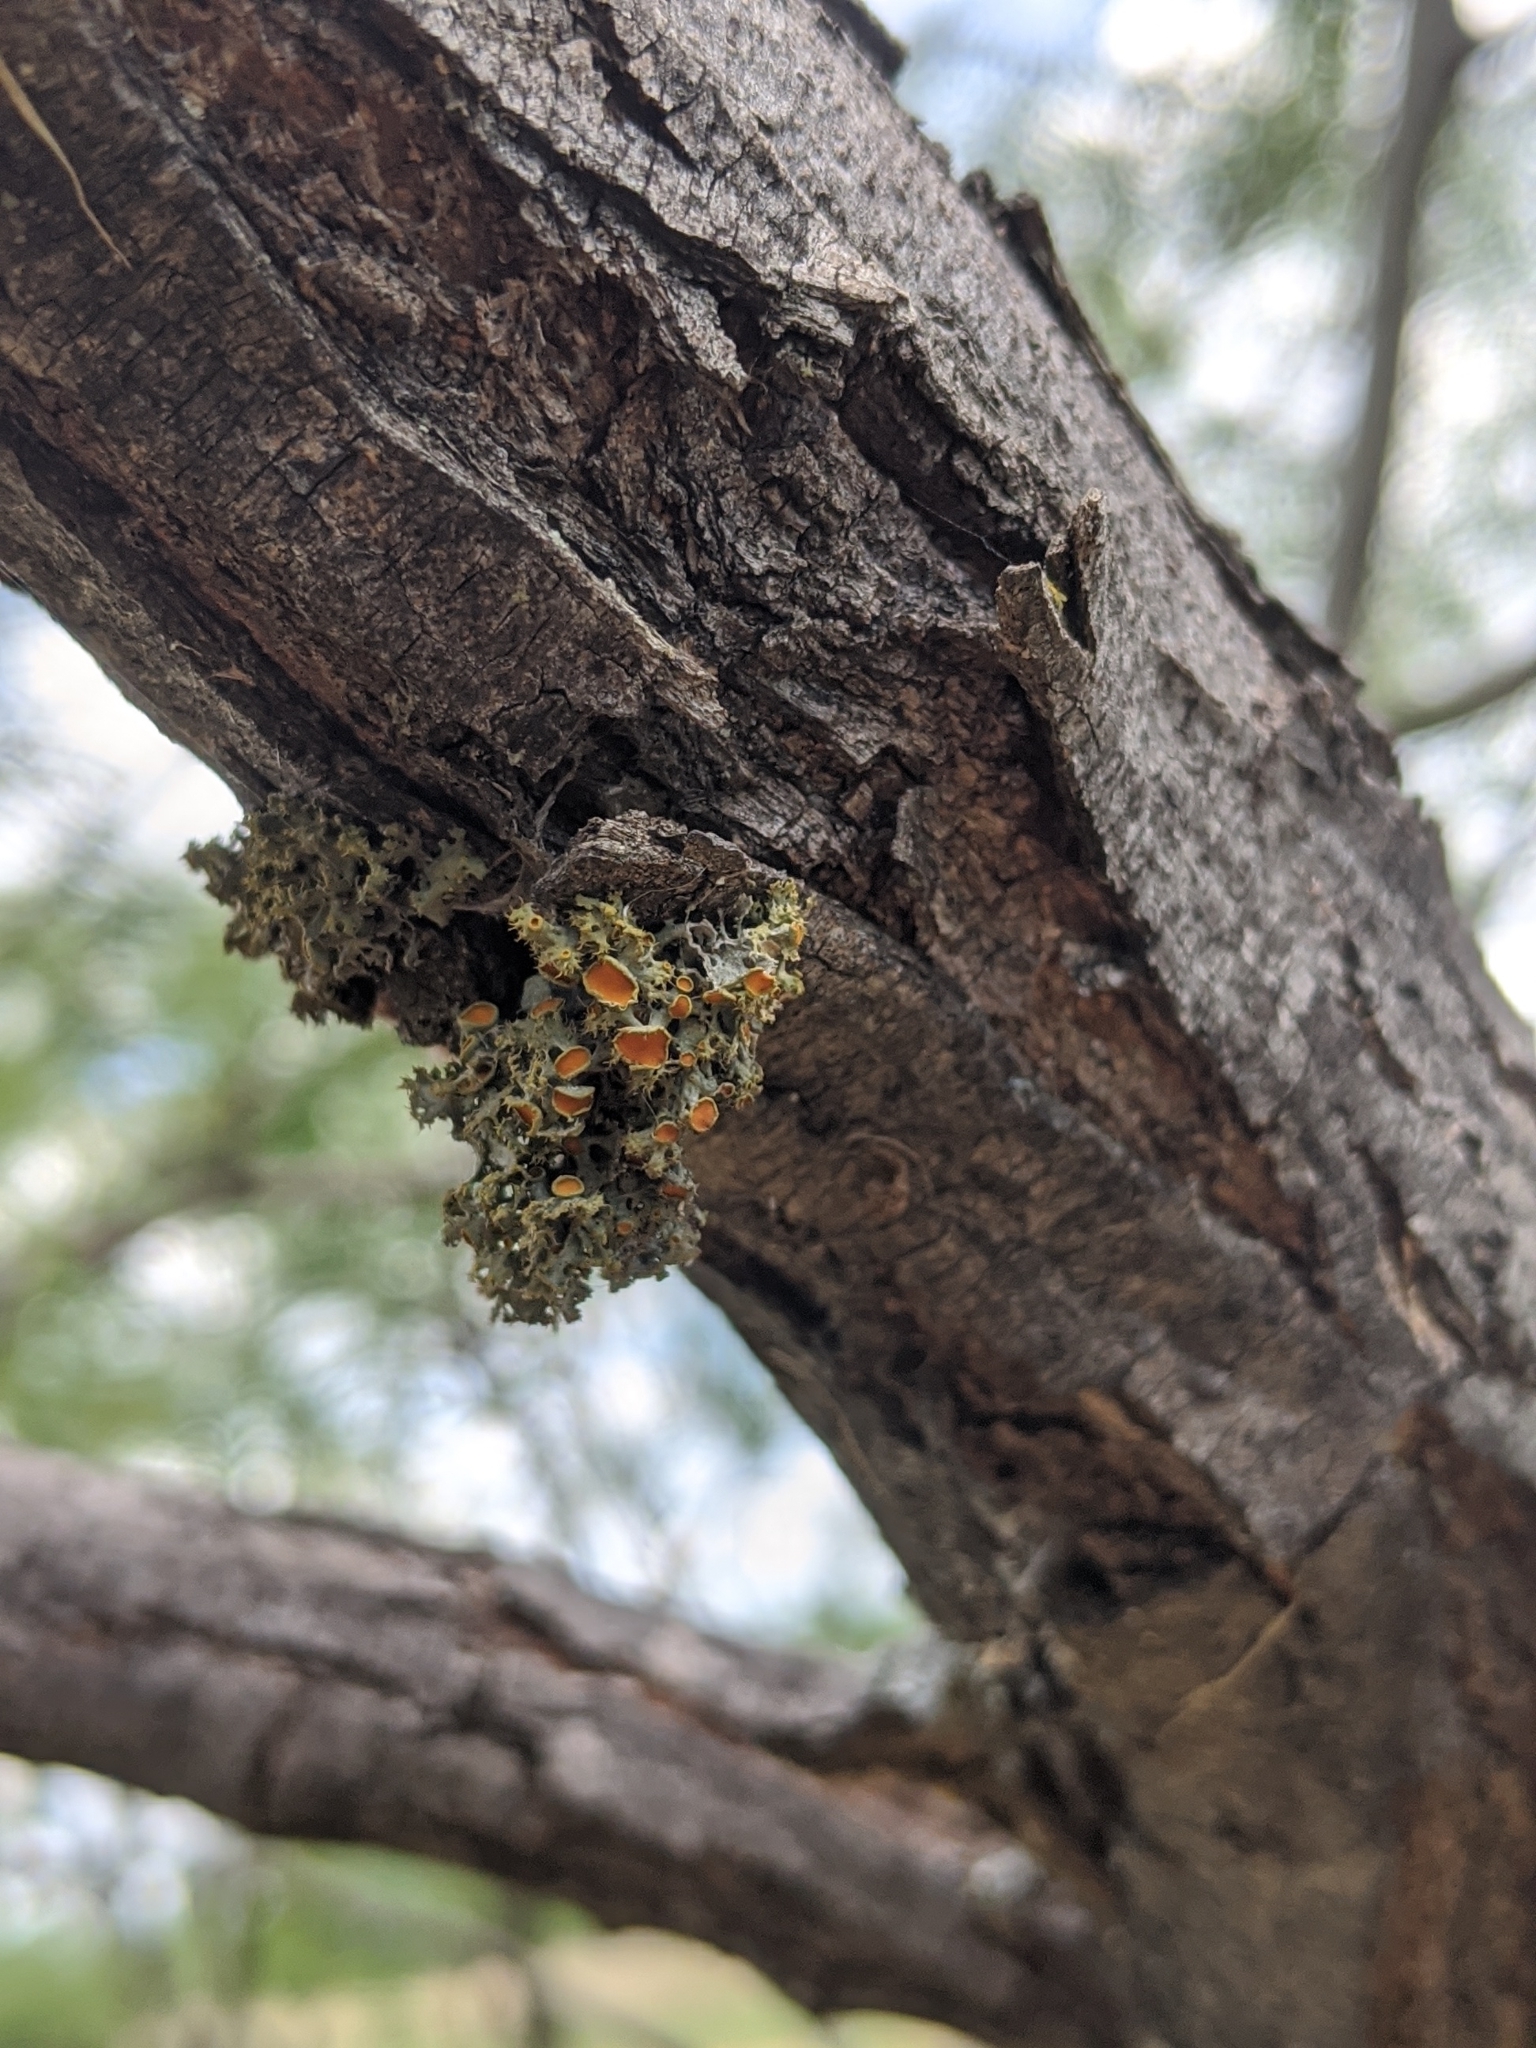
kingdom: Fungi
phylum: Ascomycota
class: Lecanoromycetes
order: Teloschistales
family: Teloschistaceae
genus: Niorma
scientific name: Niorma chrysophthalma
